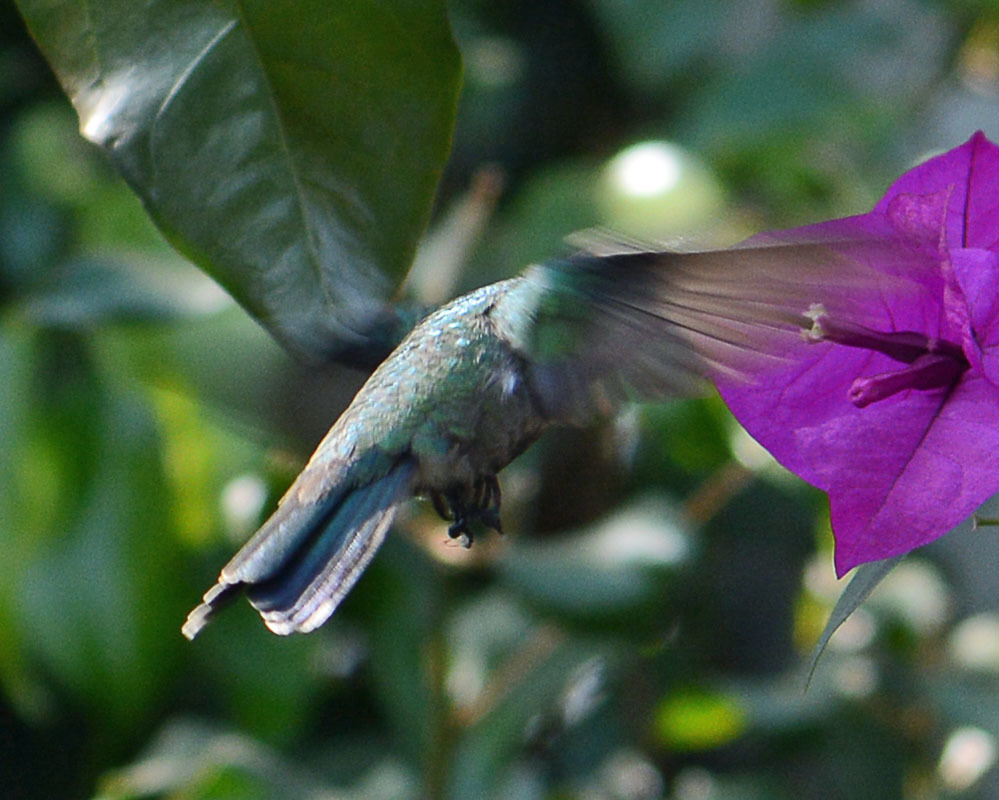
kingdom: Animalia
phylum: Chordata
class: Aves
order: Apodiformes
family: Trochilidae
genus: Cynanthus
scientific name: Cynanthus latirostris
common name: Broad-billed hummingbird
